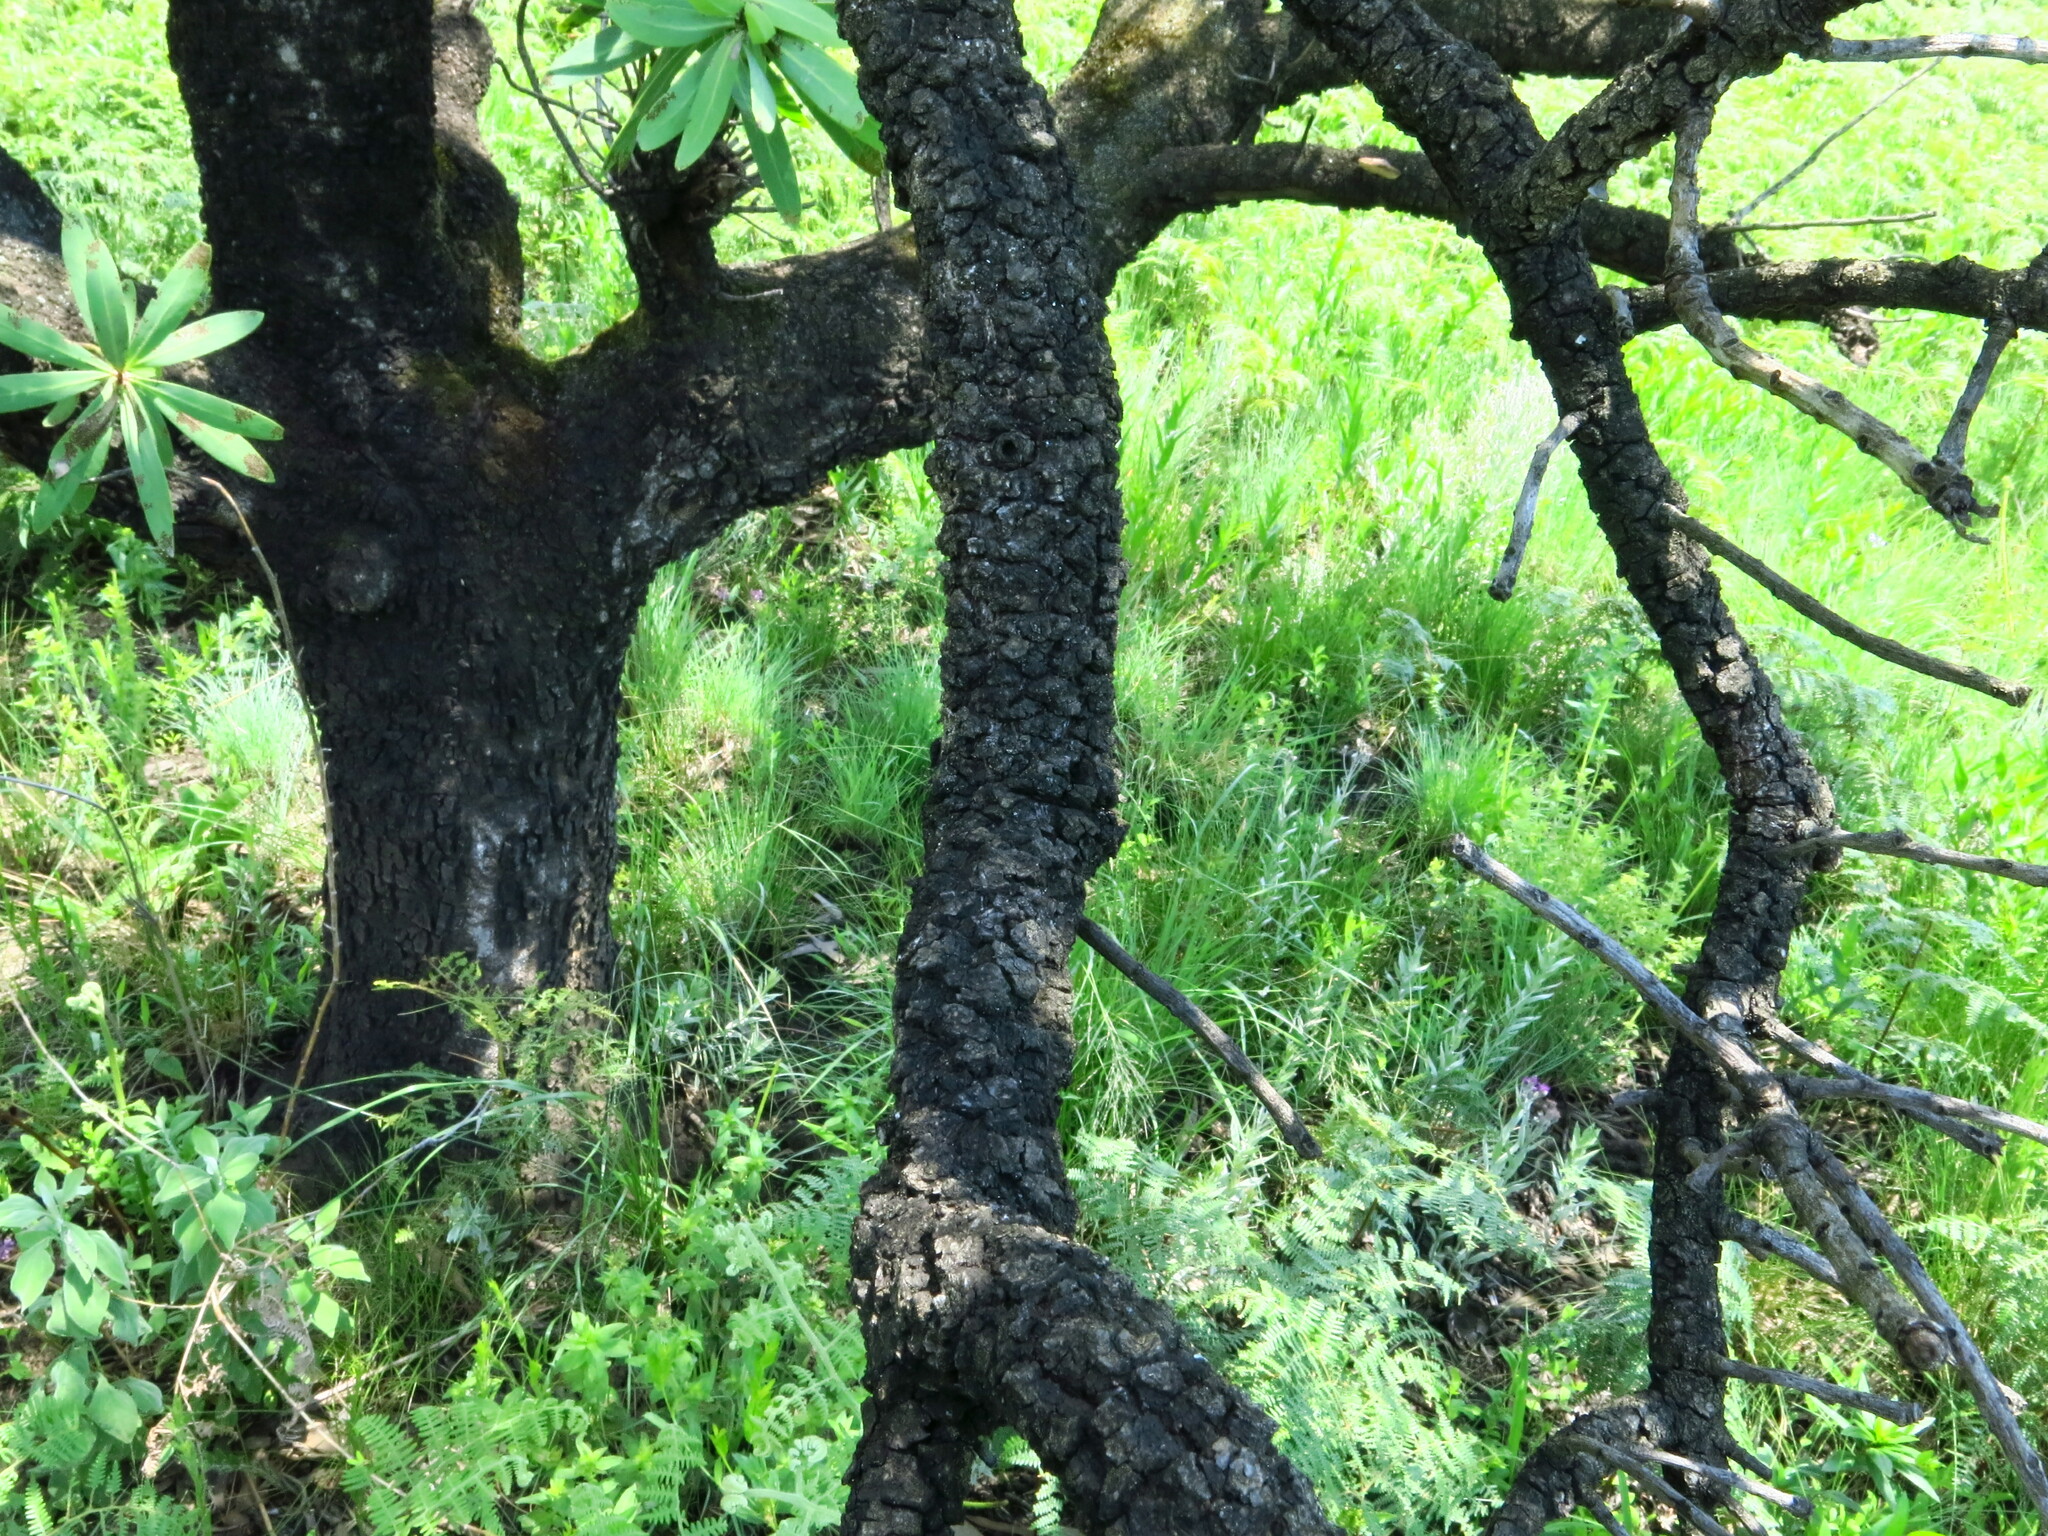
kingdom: Plantae
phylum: Tracheophyta
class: Magnoliopsida
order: Proteales
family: Proteaceae
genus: Protea
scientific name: Protea caffra
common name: Common sugarbush
